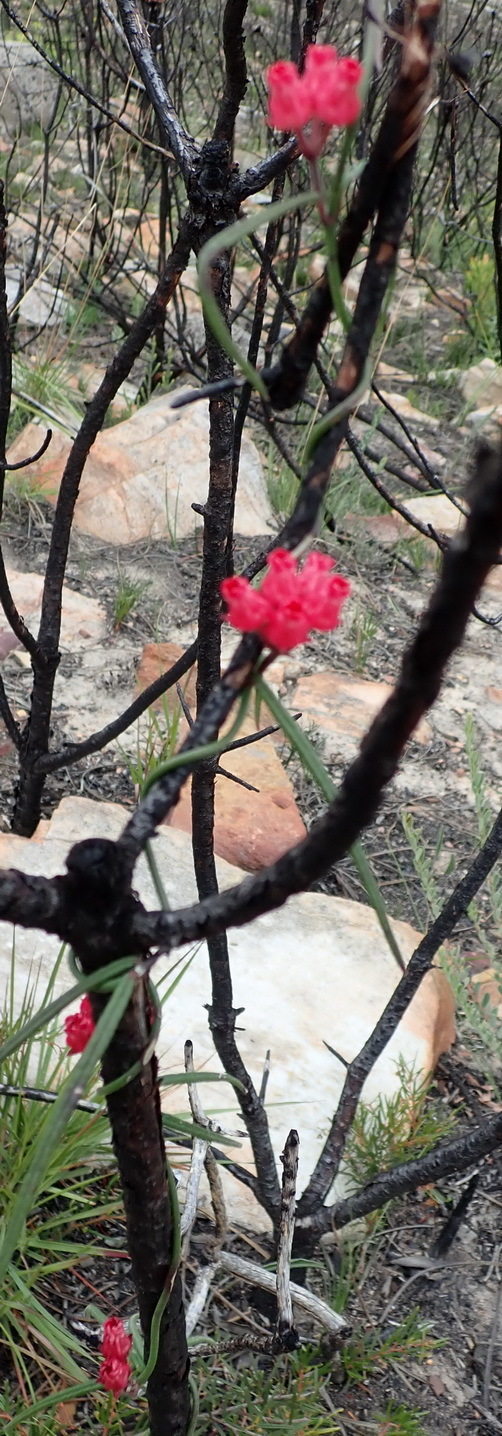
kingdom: Plantae
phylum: Tracheophyta
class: Magnoliopsida
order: Gentianales
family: Apocynaceae
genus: Microloma
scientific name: Microloma tenuifolium
